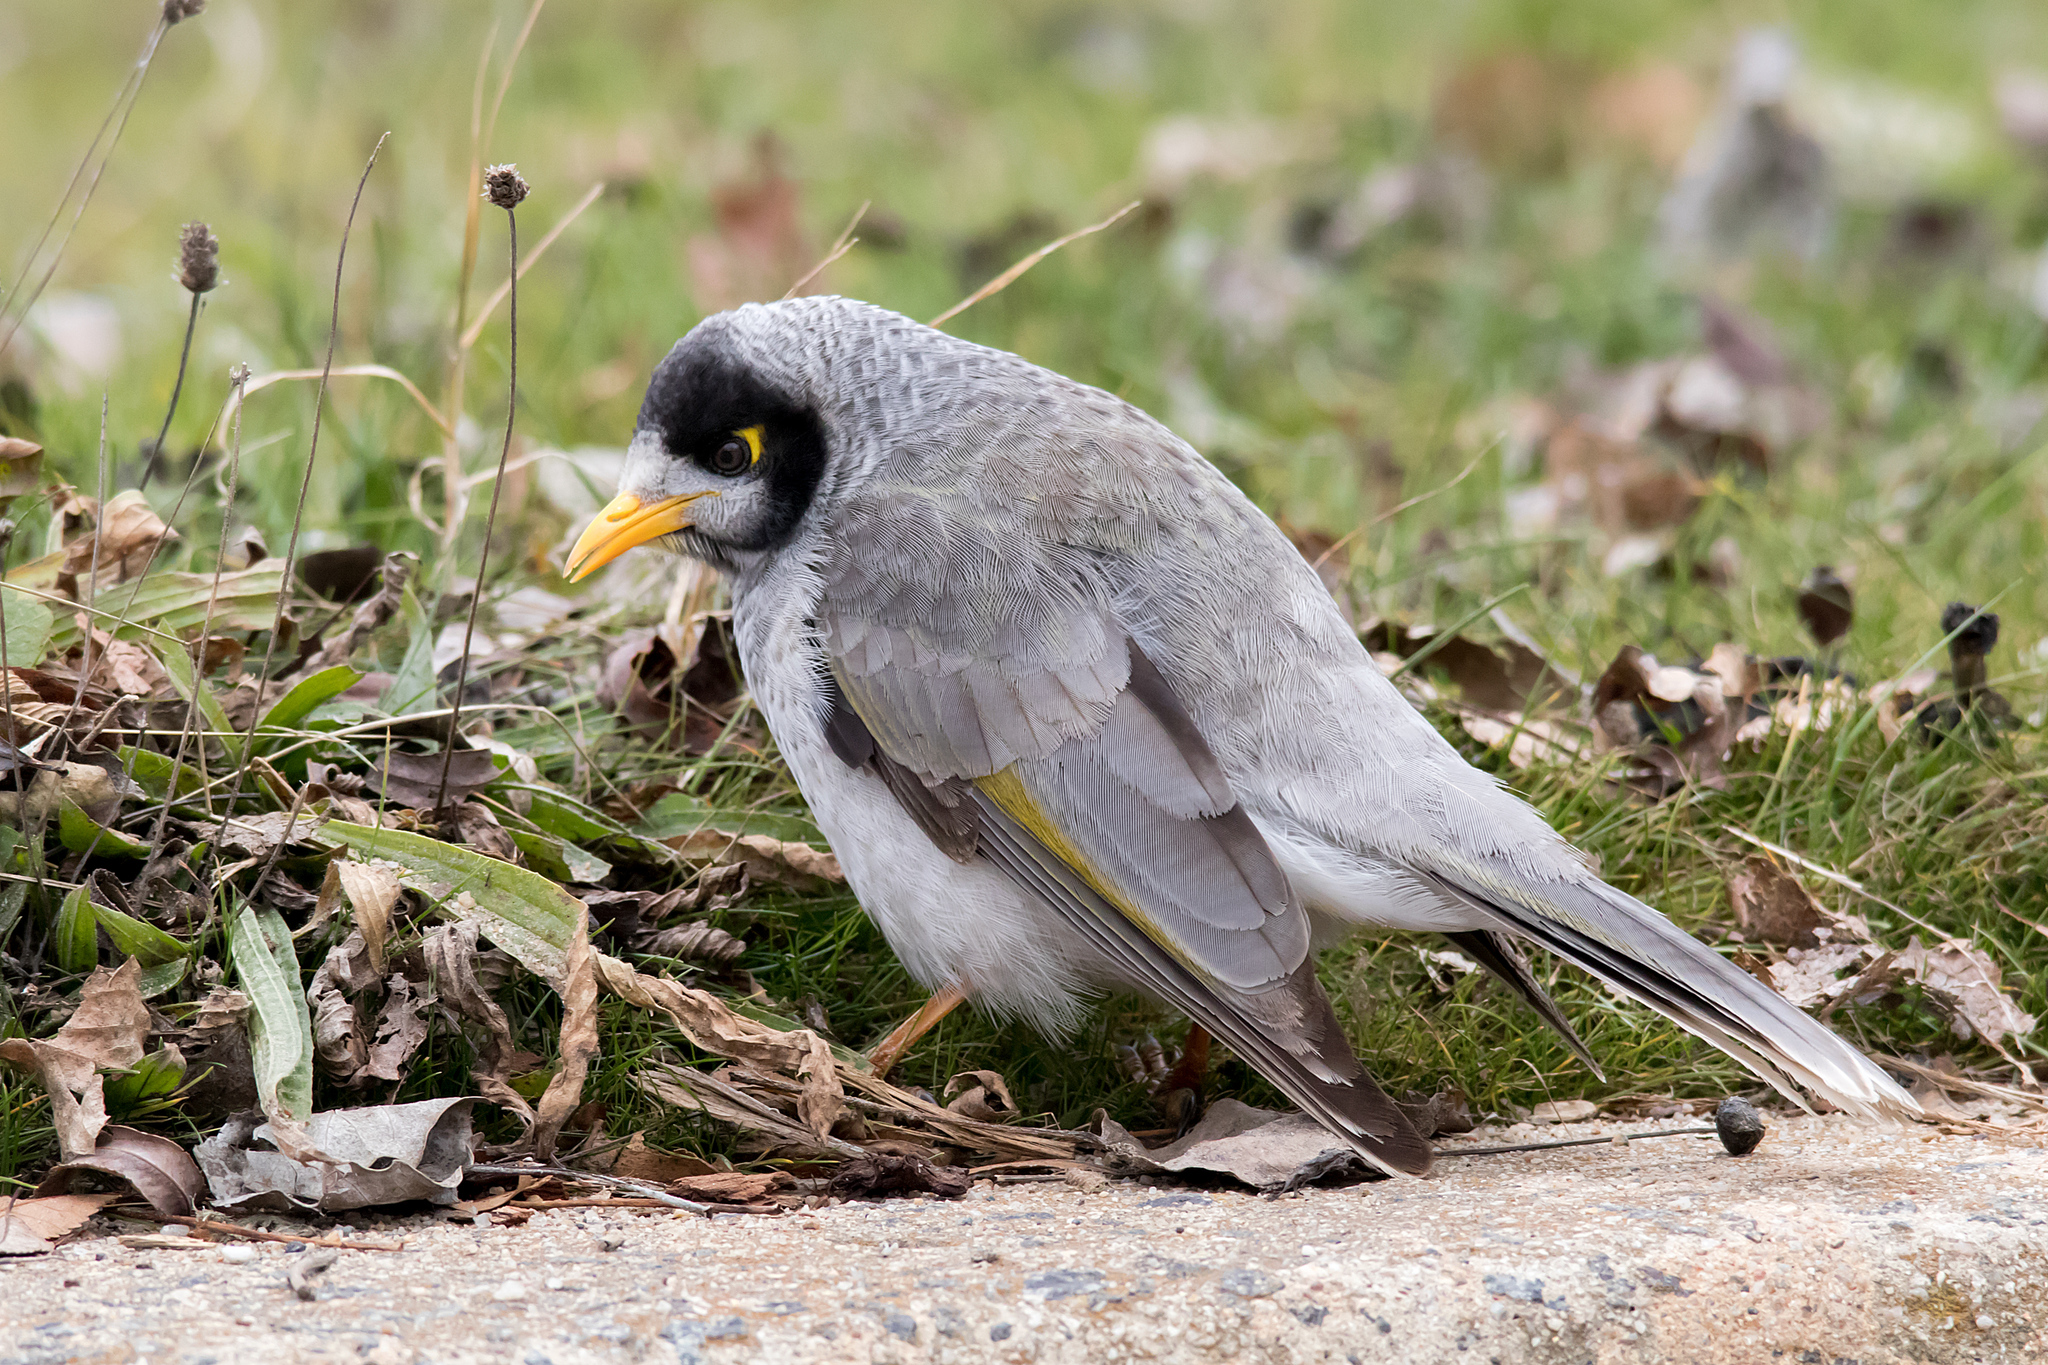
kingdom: Animalia
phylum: Chordata
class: Aves
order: Passeriformes
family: Meliphagidae
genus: Manorina
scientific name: Manorina melanocephala
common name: Noisy miner
